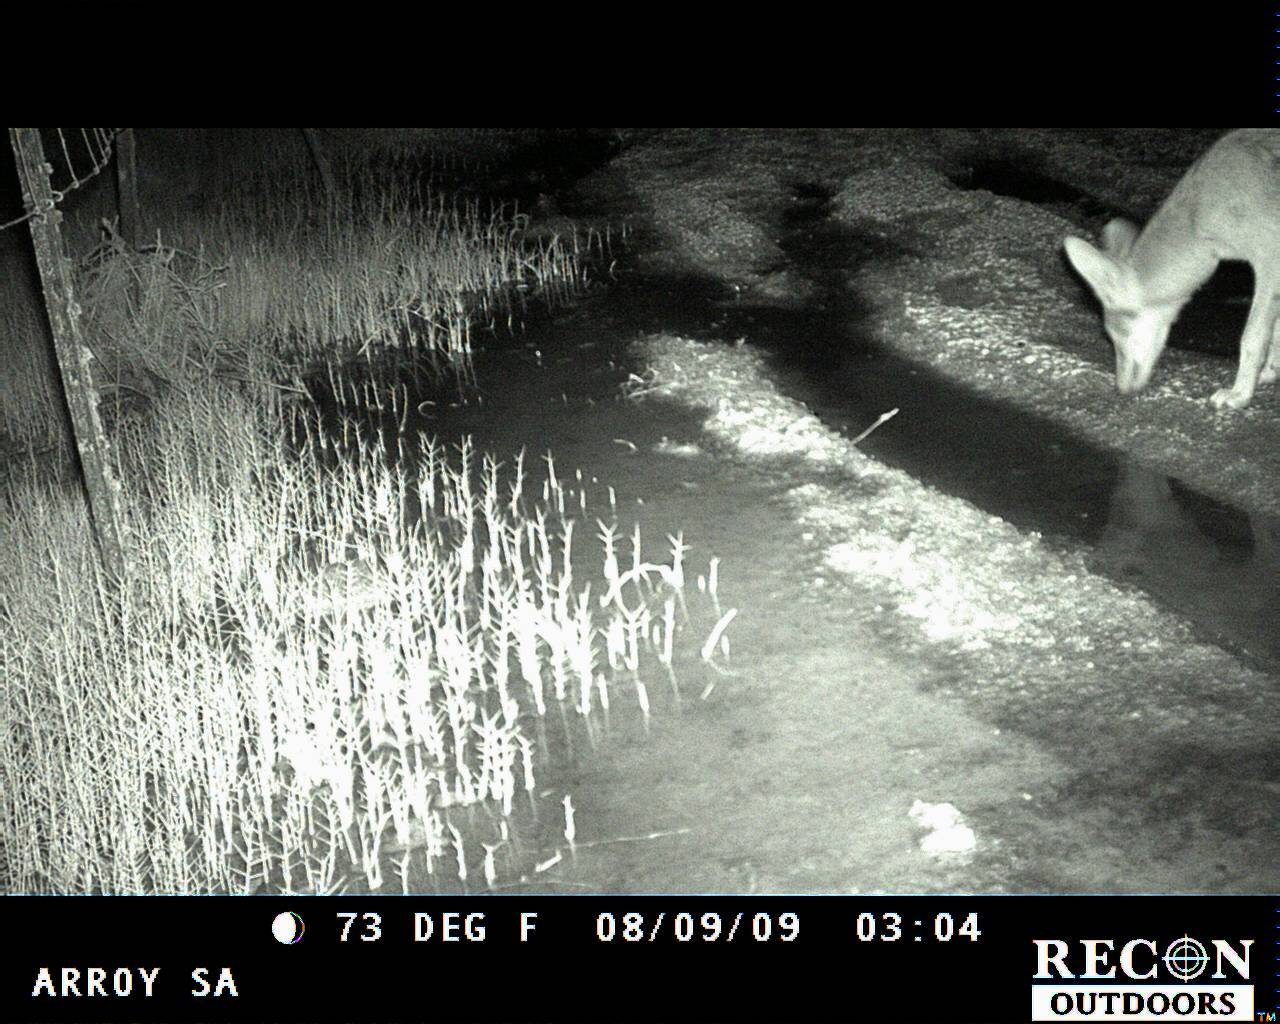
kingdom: Animalia
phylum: Chordata
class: Mammalia
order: Carnivora
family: Canidae
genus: Canis
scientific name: Canis latrans
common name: Coyote
